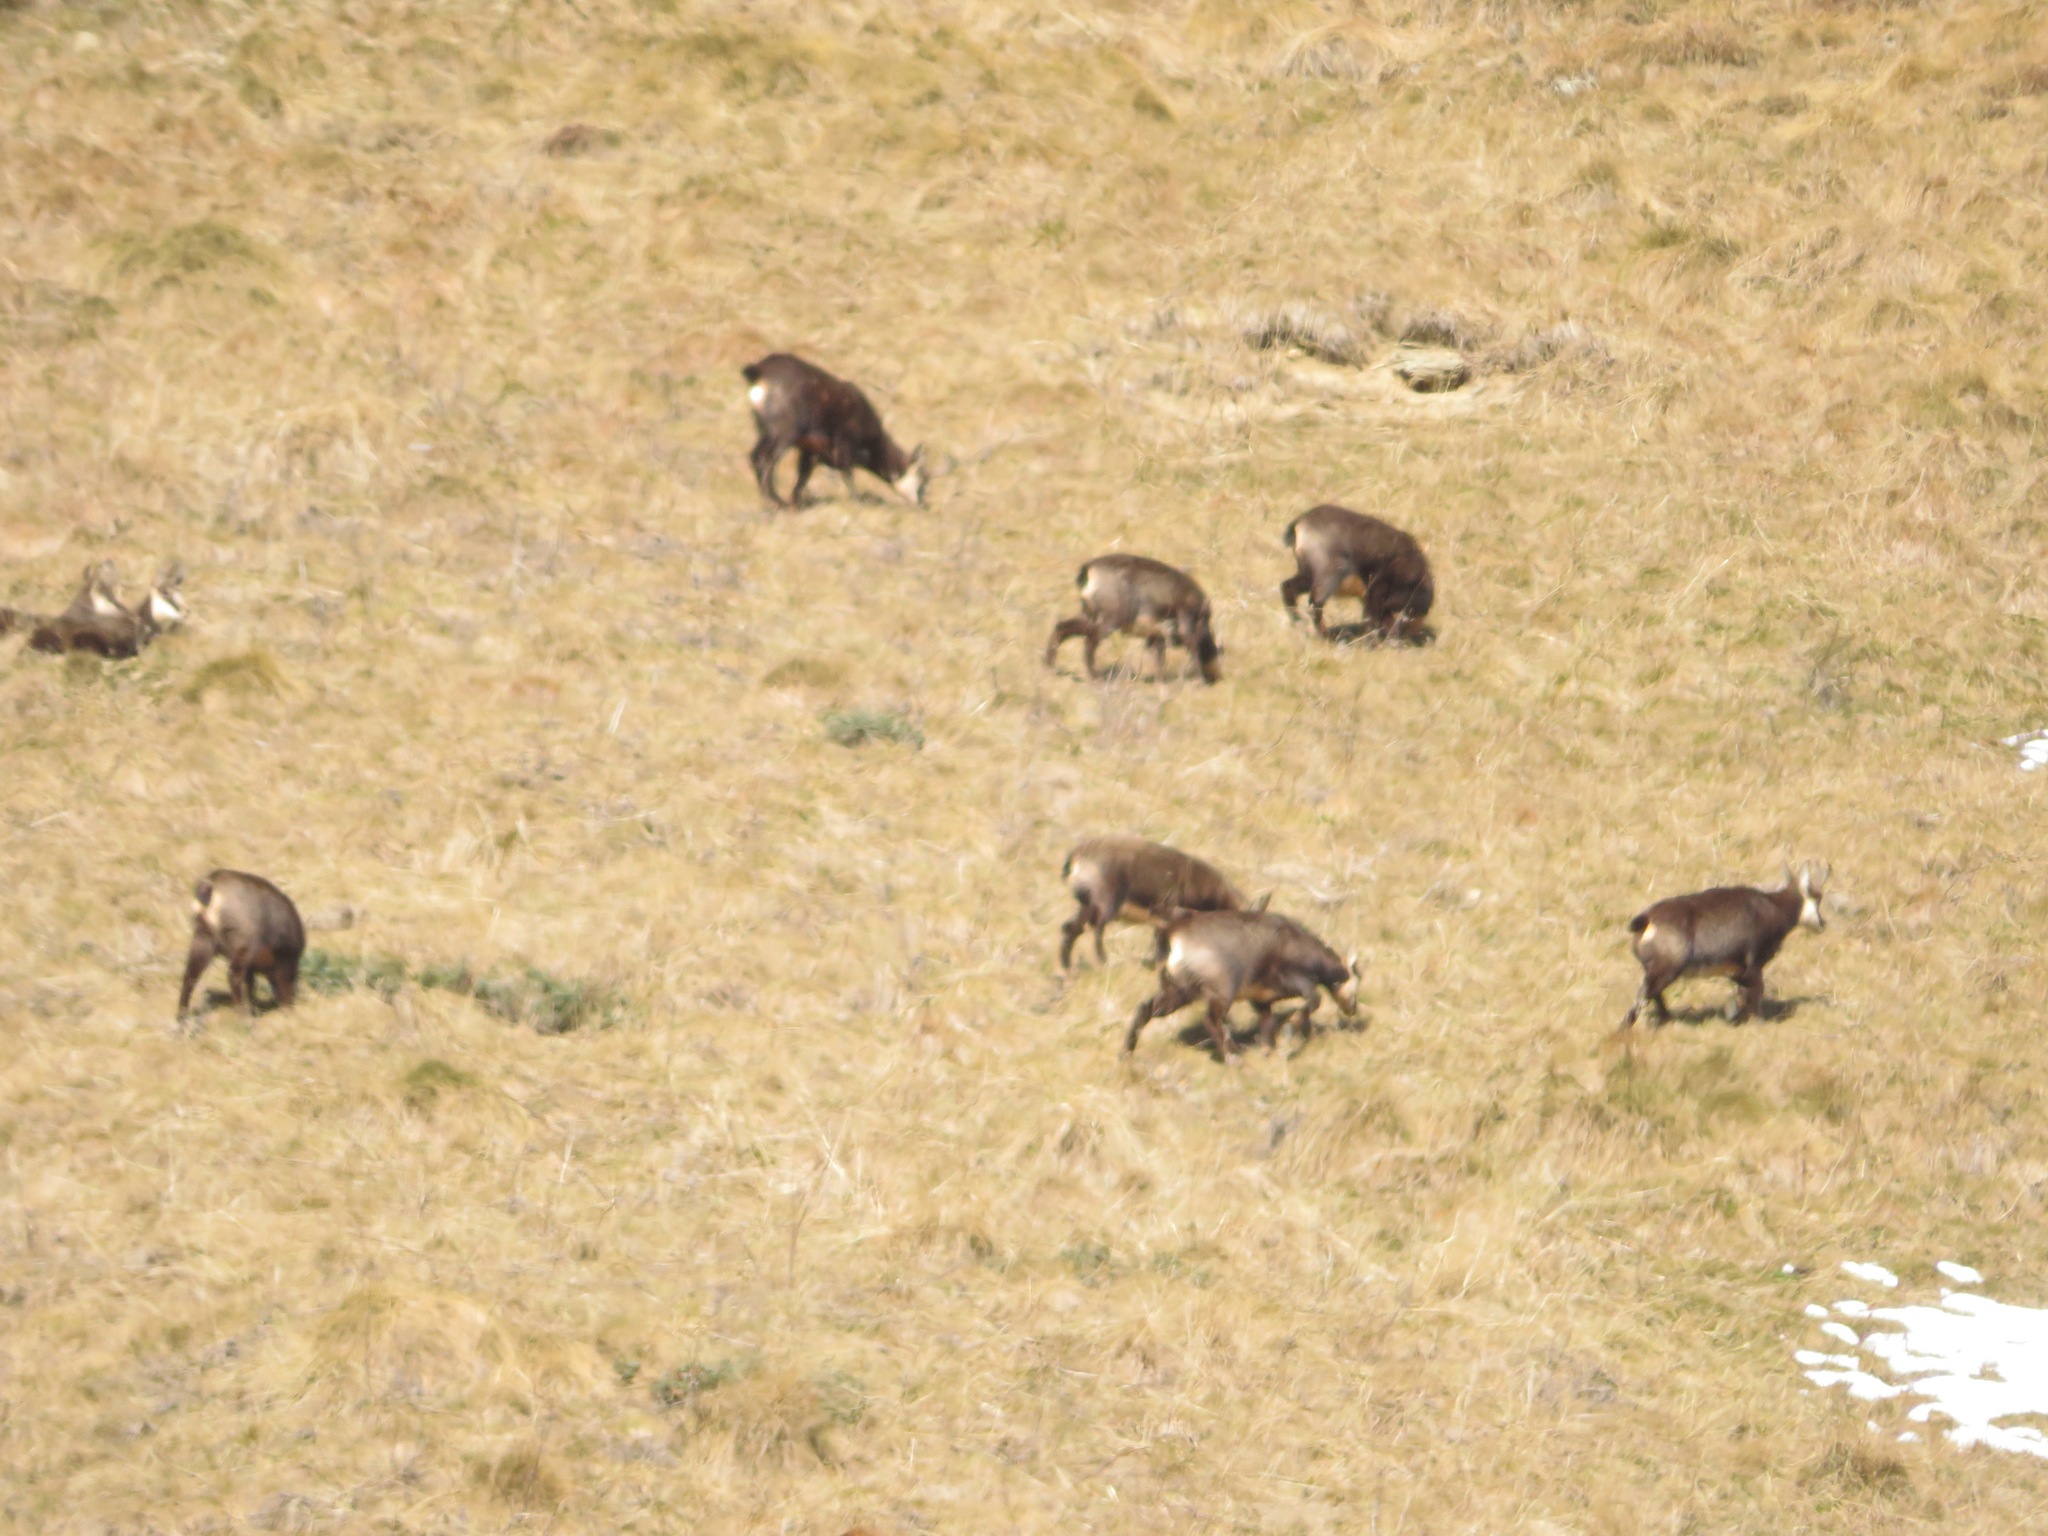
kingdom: Animalia
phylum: Chordata
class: Mammalia
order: Artiodactyla
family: Bovidae
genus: Rupicapra
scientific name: Rupicapra rupicapra
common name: Chamois
